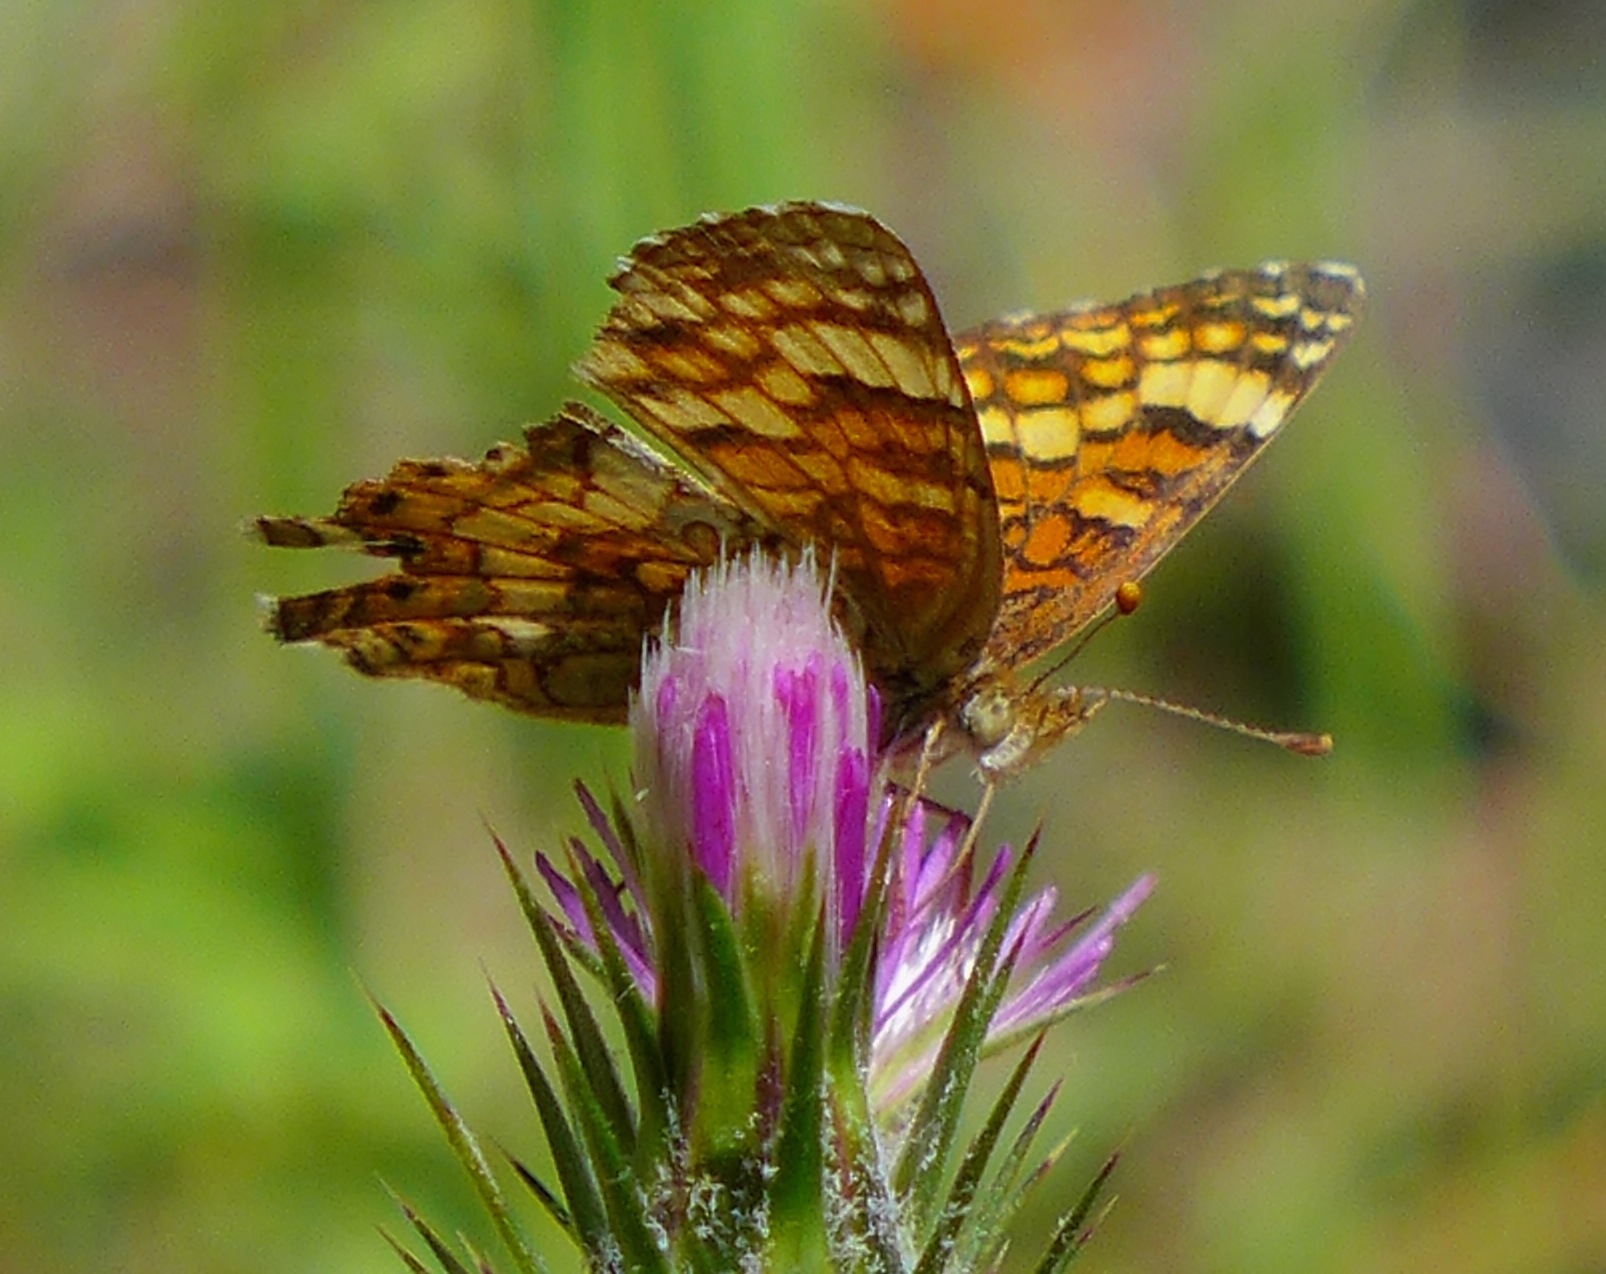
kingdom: Animalia
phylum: Arthropoda
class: Insecta
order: Lepidoptera
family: Nymphalidae
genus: Eresia
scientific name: Eresia aveyrona
